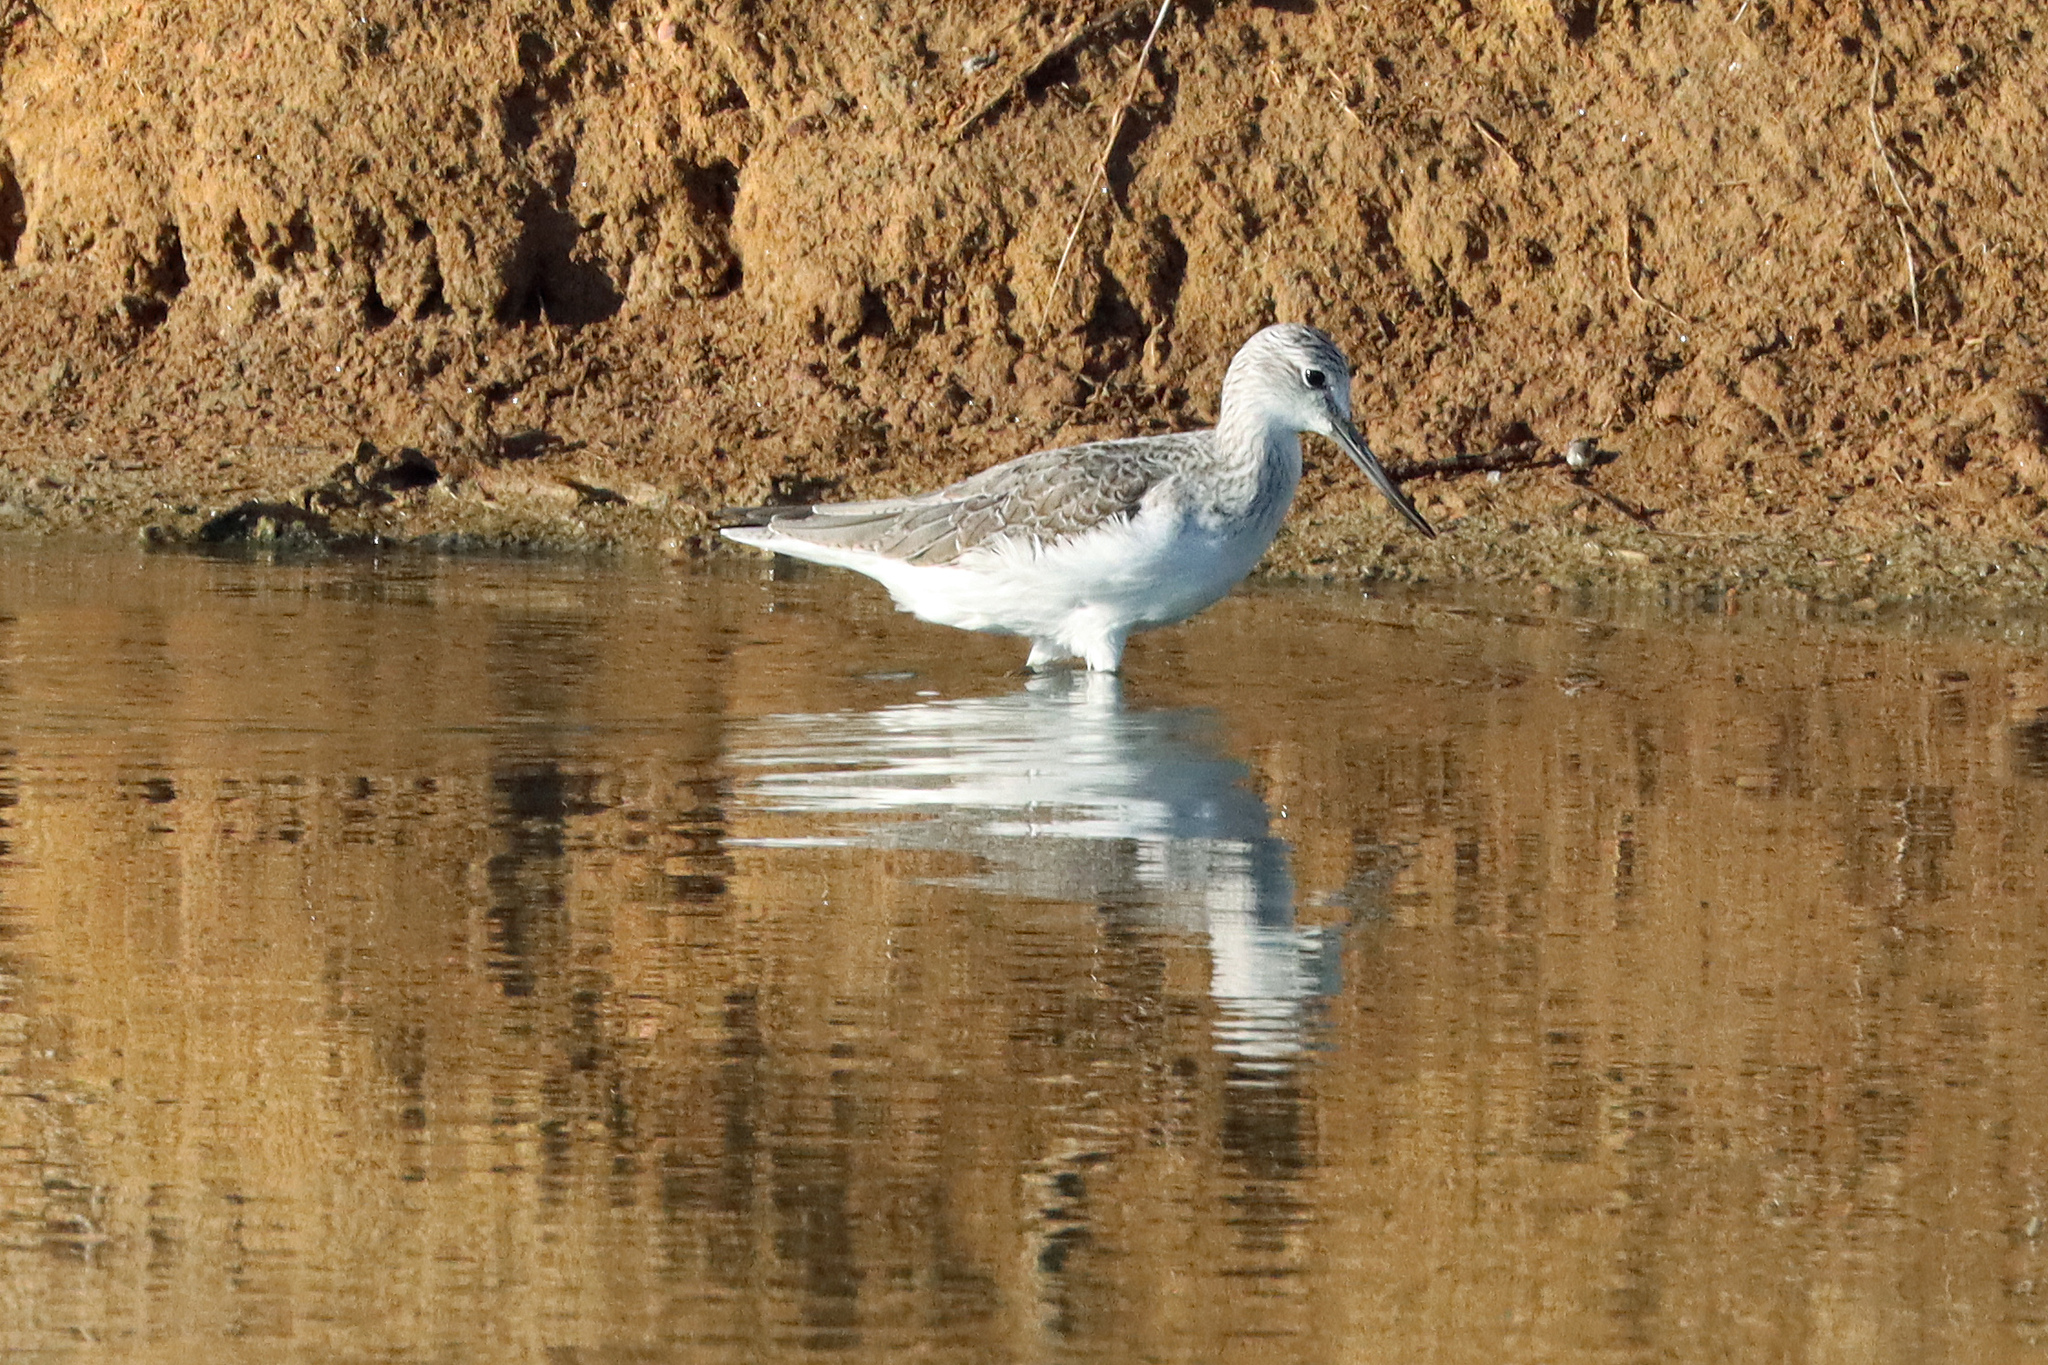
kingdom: Animalia
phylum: Chordata
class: Aves
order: Charadriiformes
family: Scolopacidae
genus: Tringa
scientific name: Tringa nebularia
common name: Common greenshank
